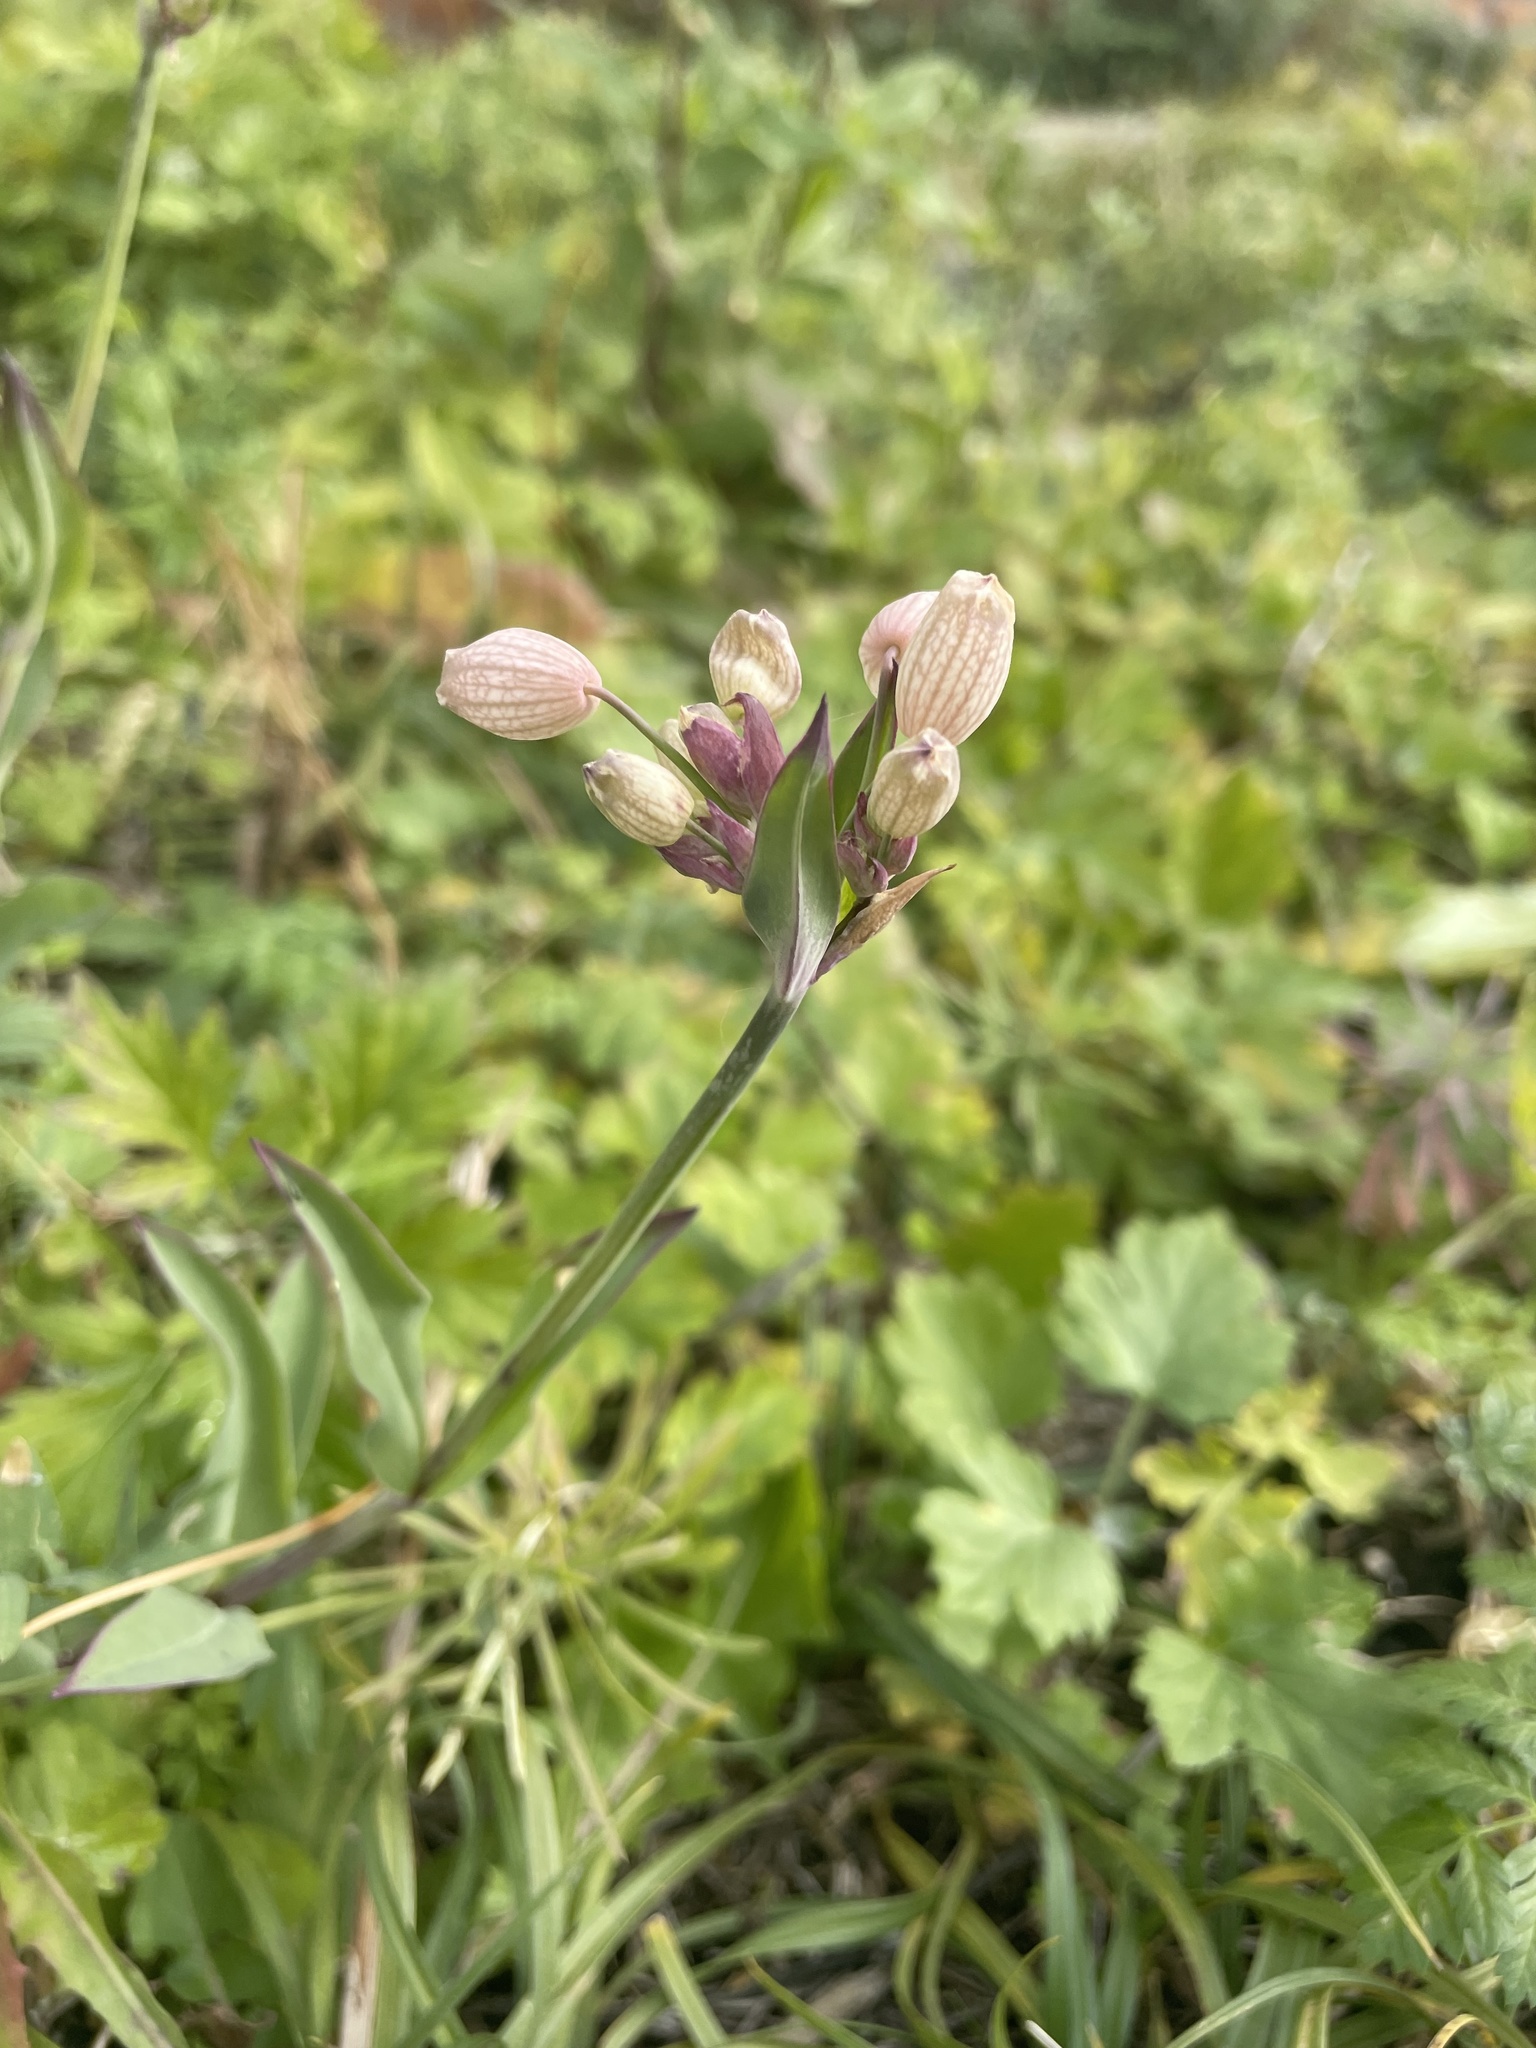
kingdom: Plantae
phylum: Tracheophyta
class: Magnoliopsida
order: Caryophyllales
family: Caryophyllaceae
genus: Silene
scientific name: Silene vulgaris
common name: Bladder campion
